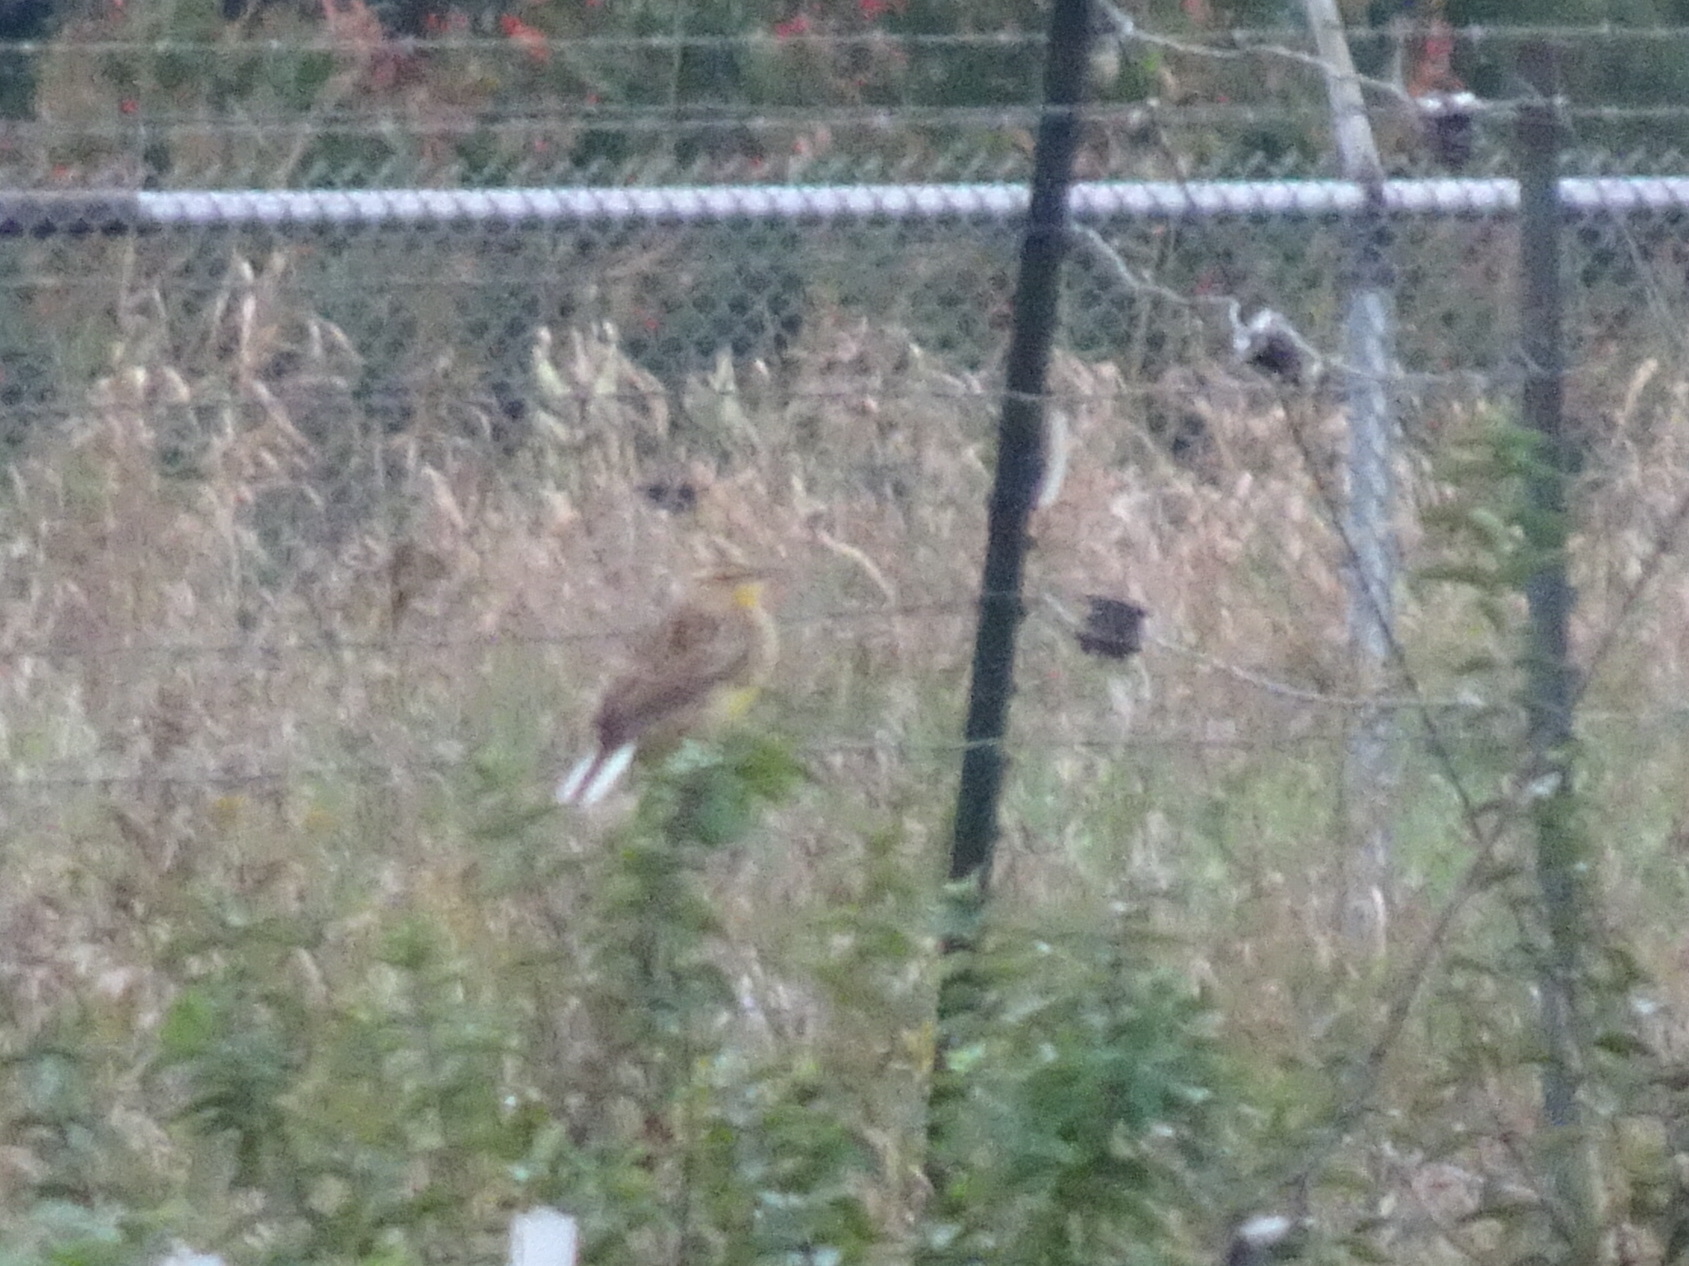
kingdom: Animalia
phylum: Chordata
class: Aves
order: Passeriformes
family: Icteridae
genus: Sturnella
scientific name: Sturnella magna
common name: Eastern meadowlark
